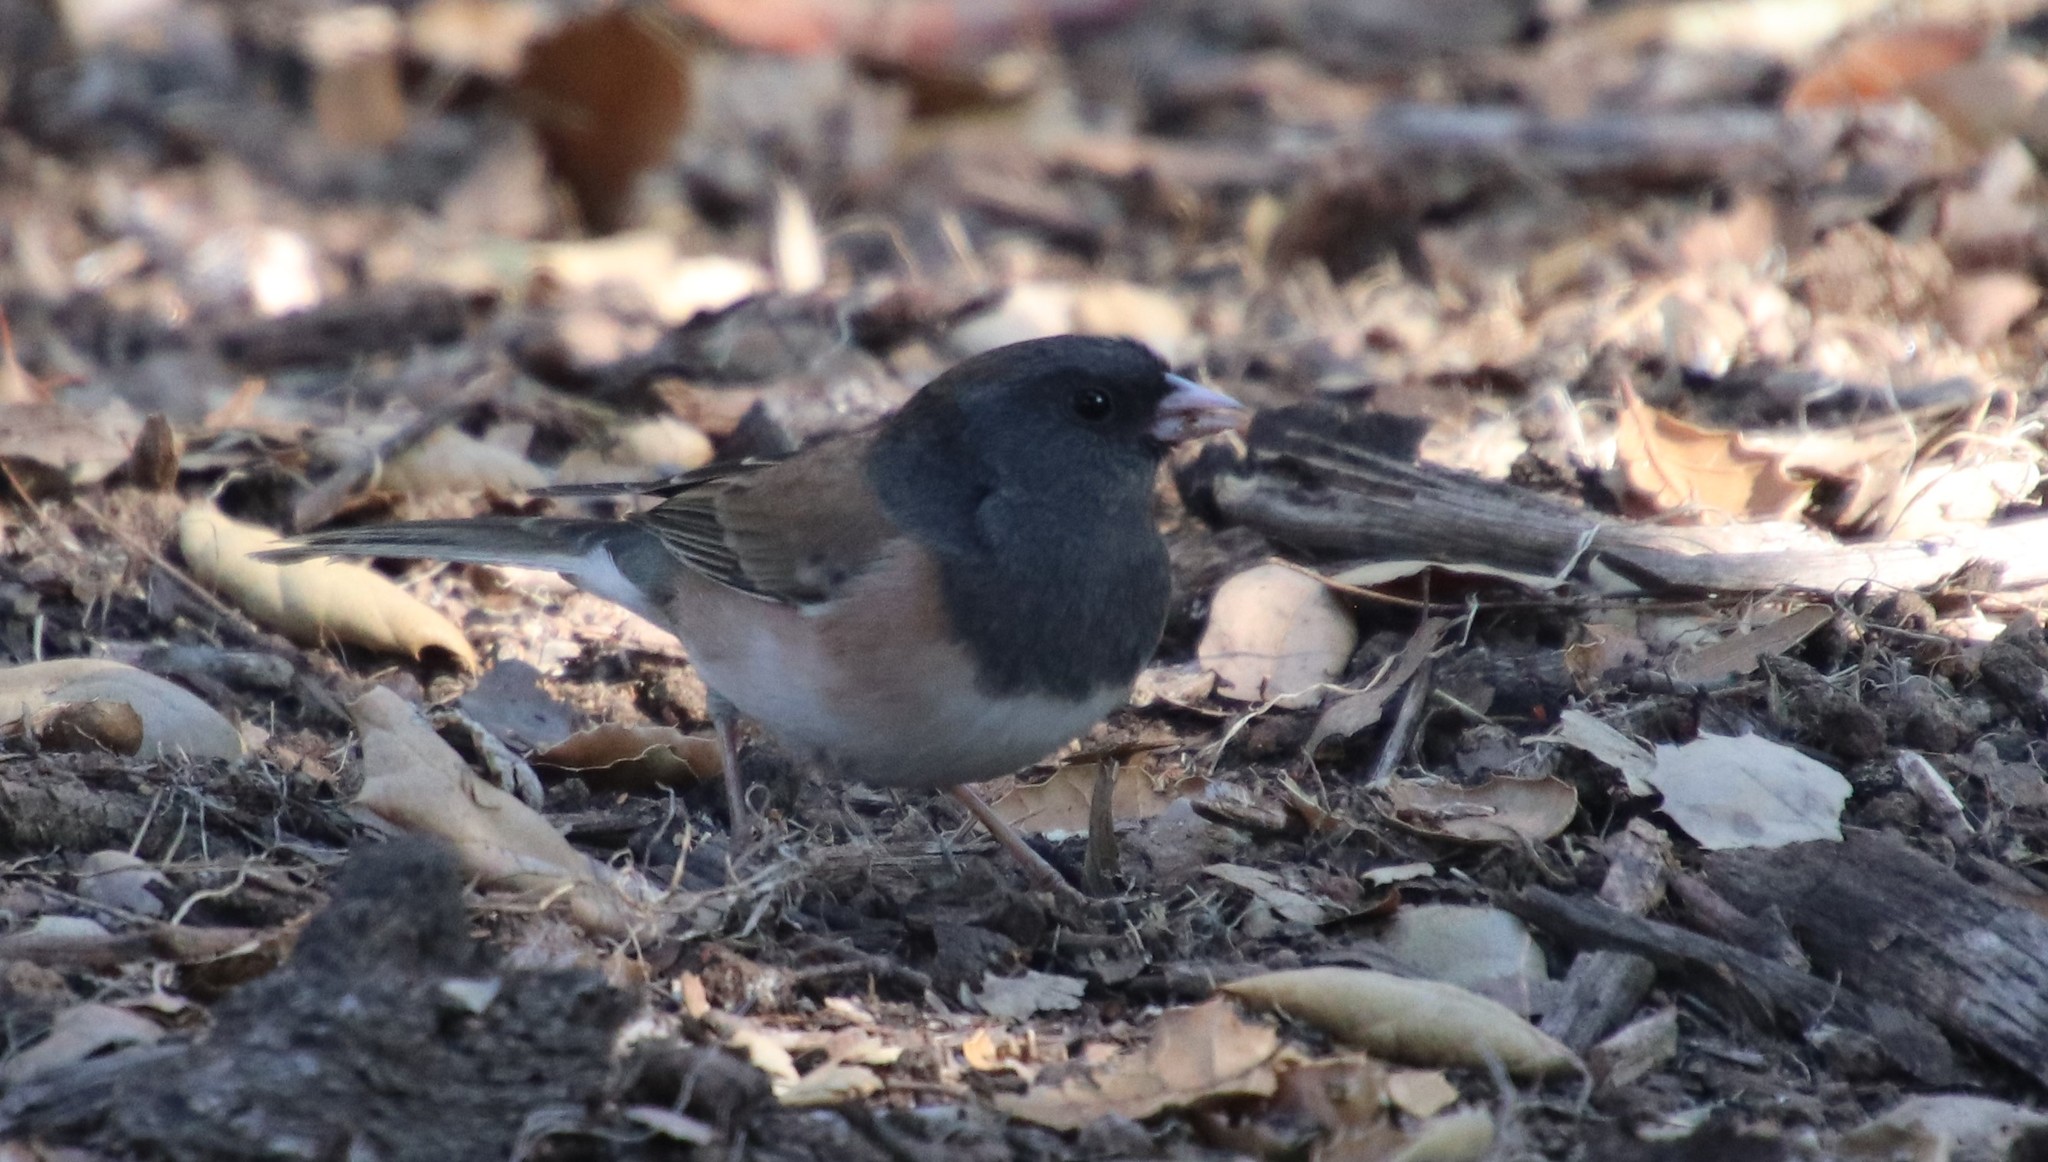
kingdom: Animalia
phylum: Chordata
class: Aves
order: Passeriformes
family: Passerellidae
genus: Junco
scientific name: Junco hyemalis
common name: Dark-eyed junco
